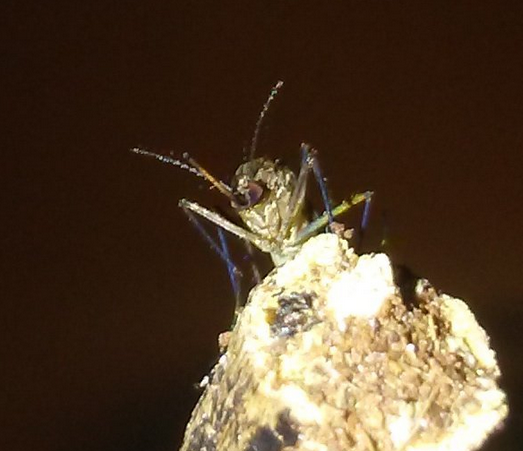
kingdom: Animalia
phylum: Arthropoda
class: Insecta
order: Diptera
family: Culicidae
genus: Aedes
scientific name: Aedes vexans
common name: Inland floodwater mosquito
